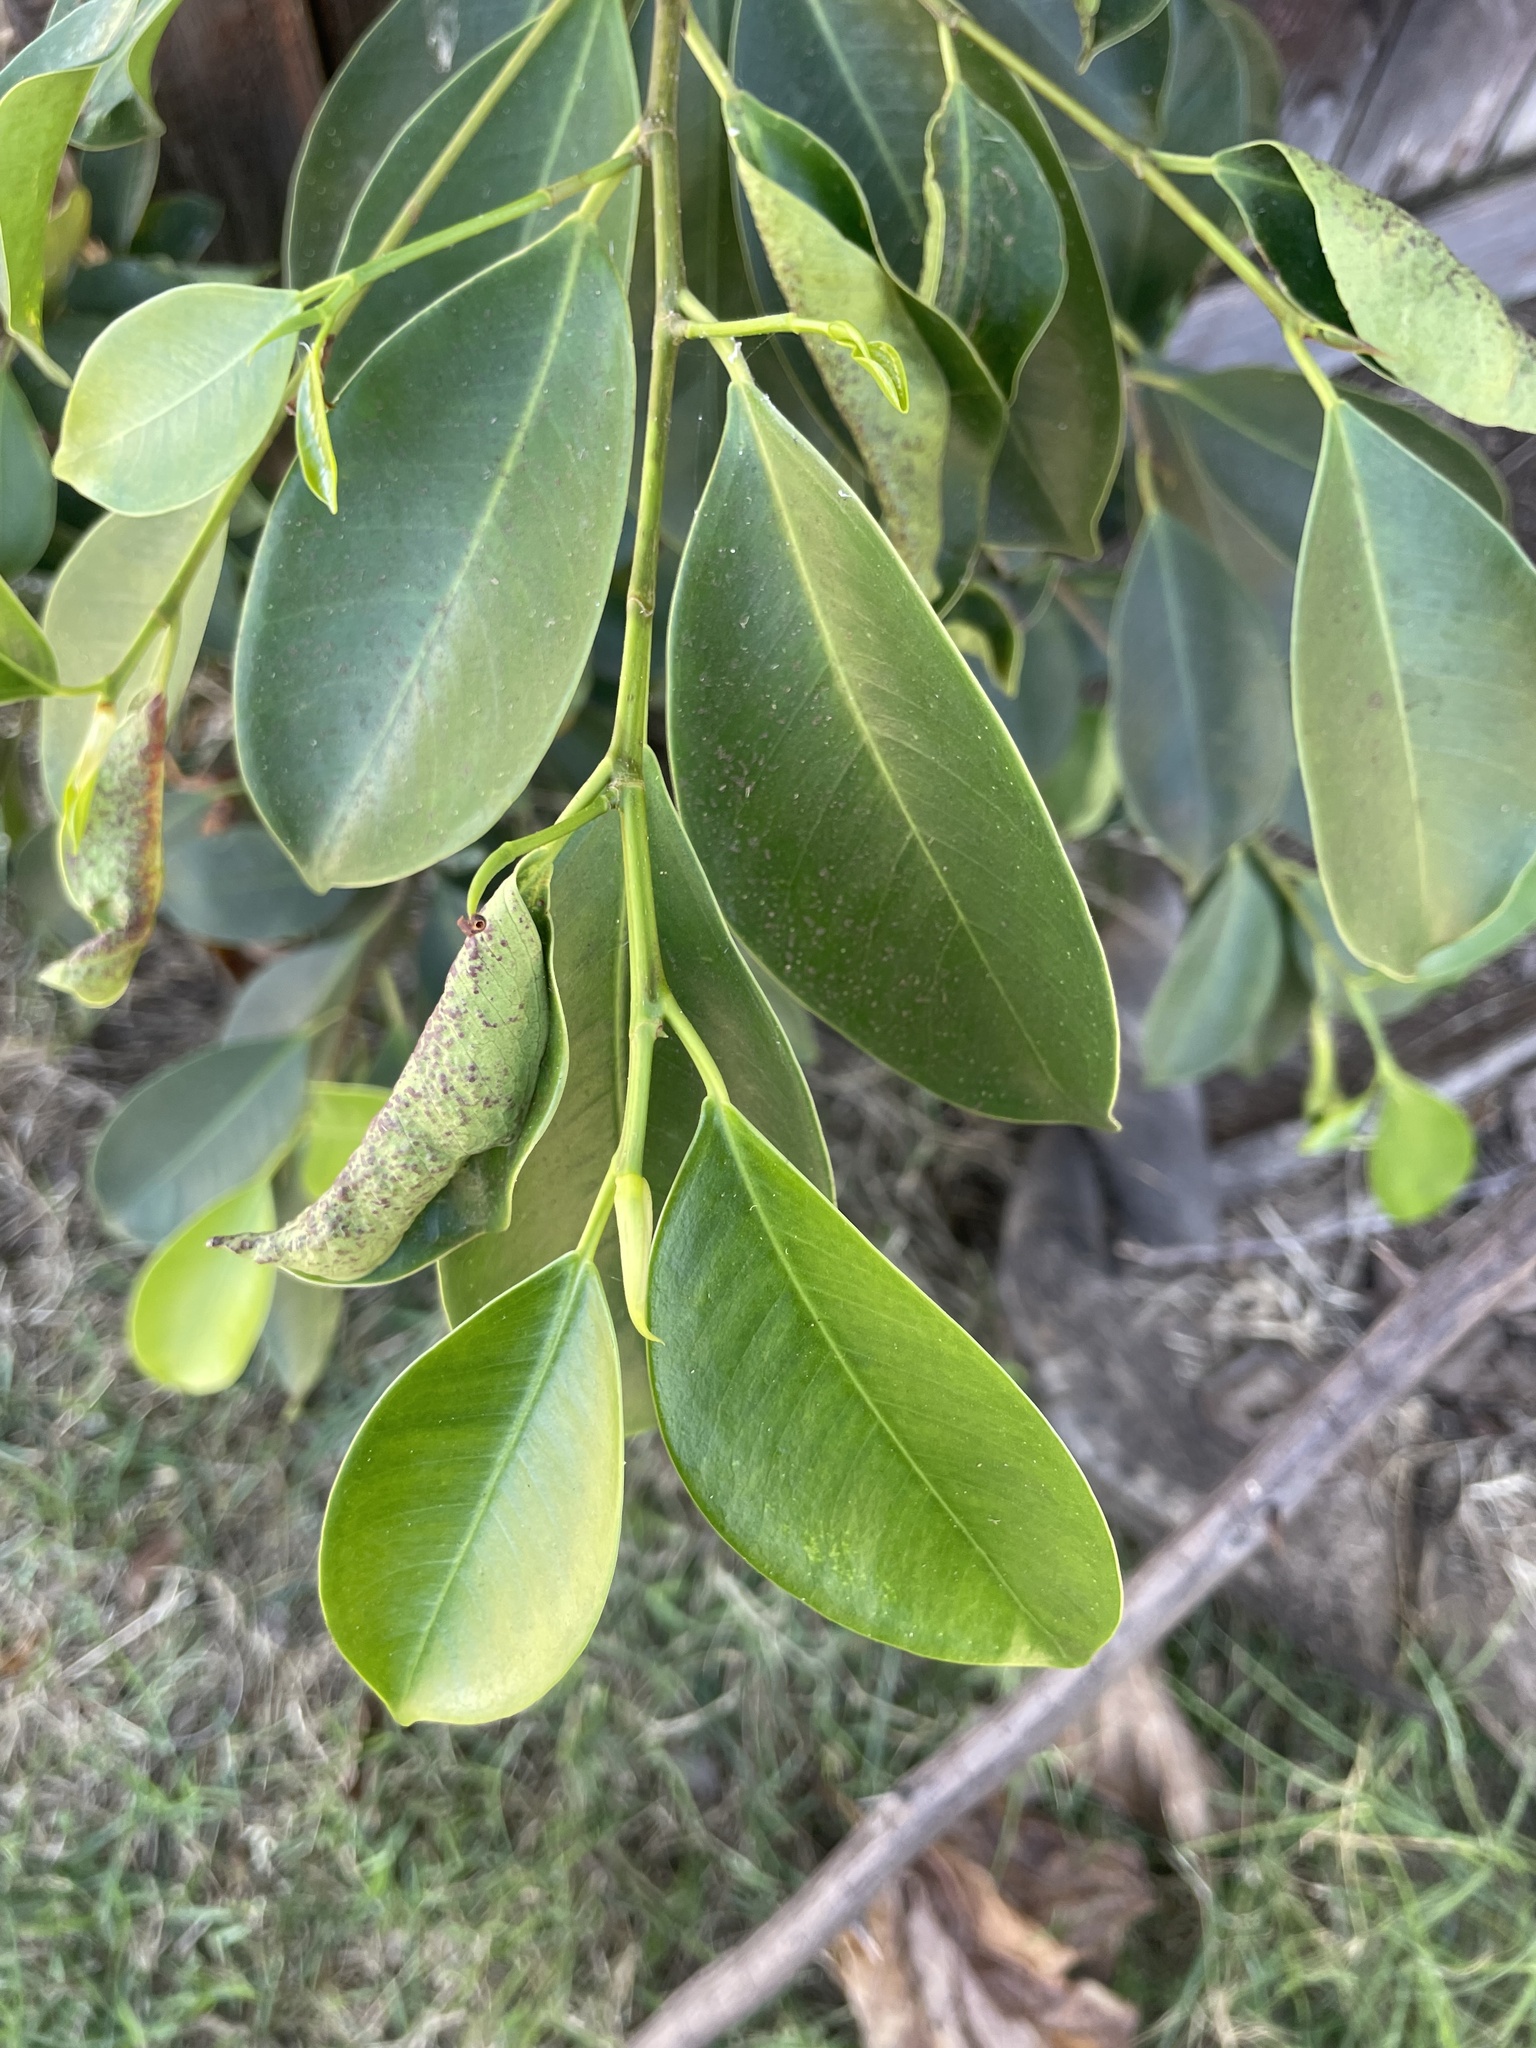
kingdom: Plantae
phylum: Tracheophyta
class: Magnoliopsida
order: Rosales
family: Moraceae
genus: Ficus
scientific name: Ficus microcarpa
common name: Chinese banyan
